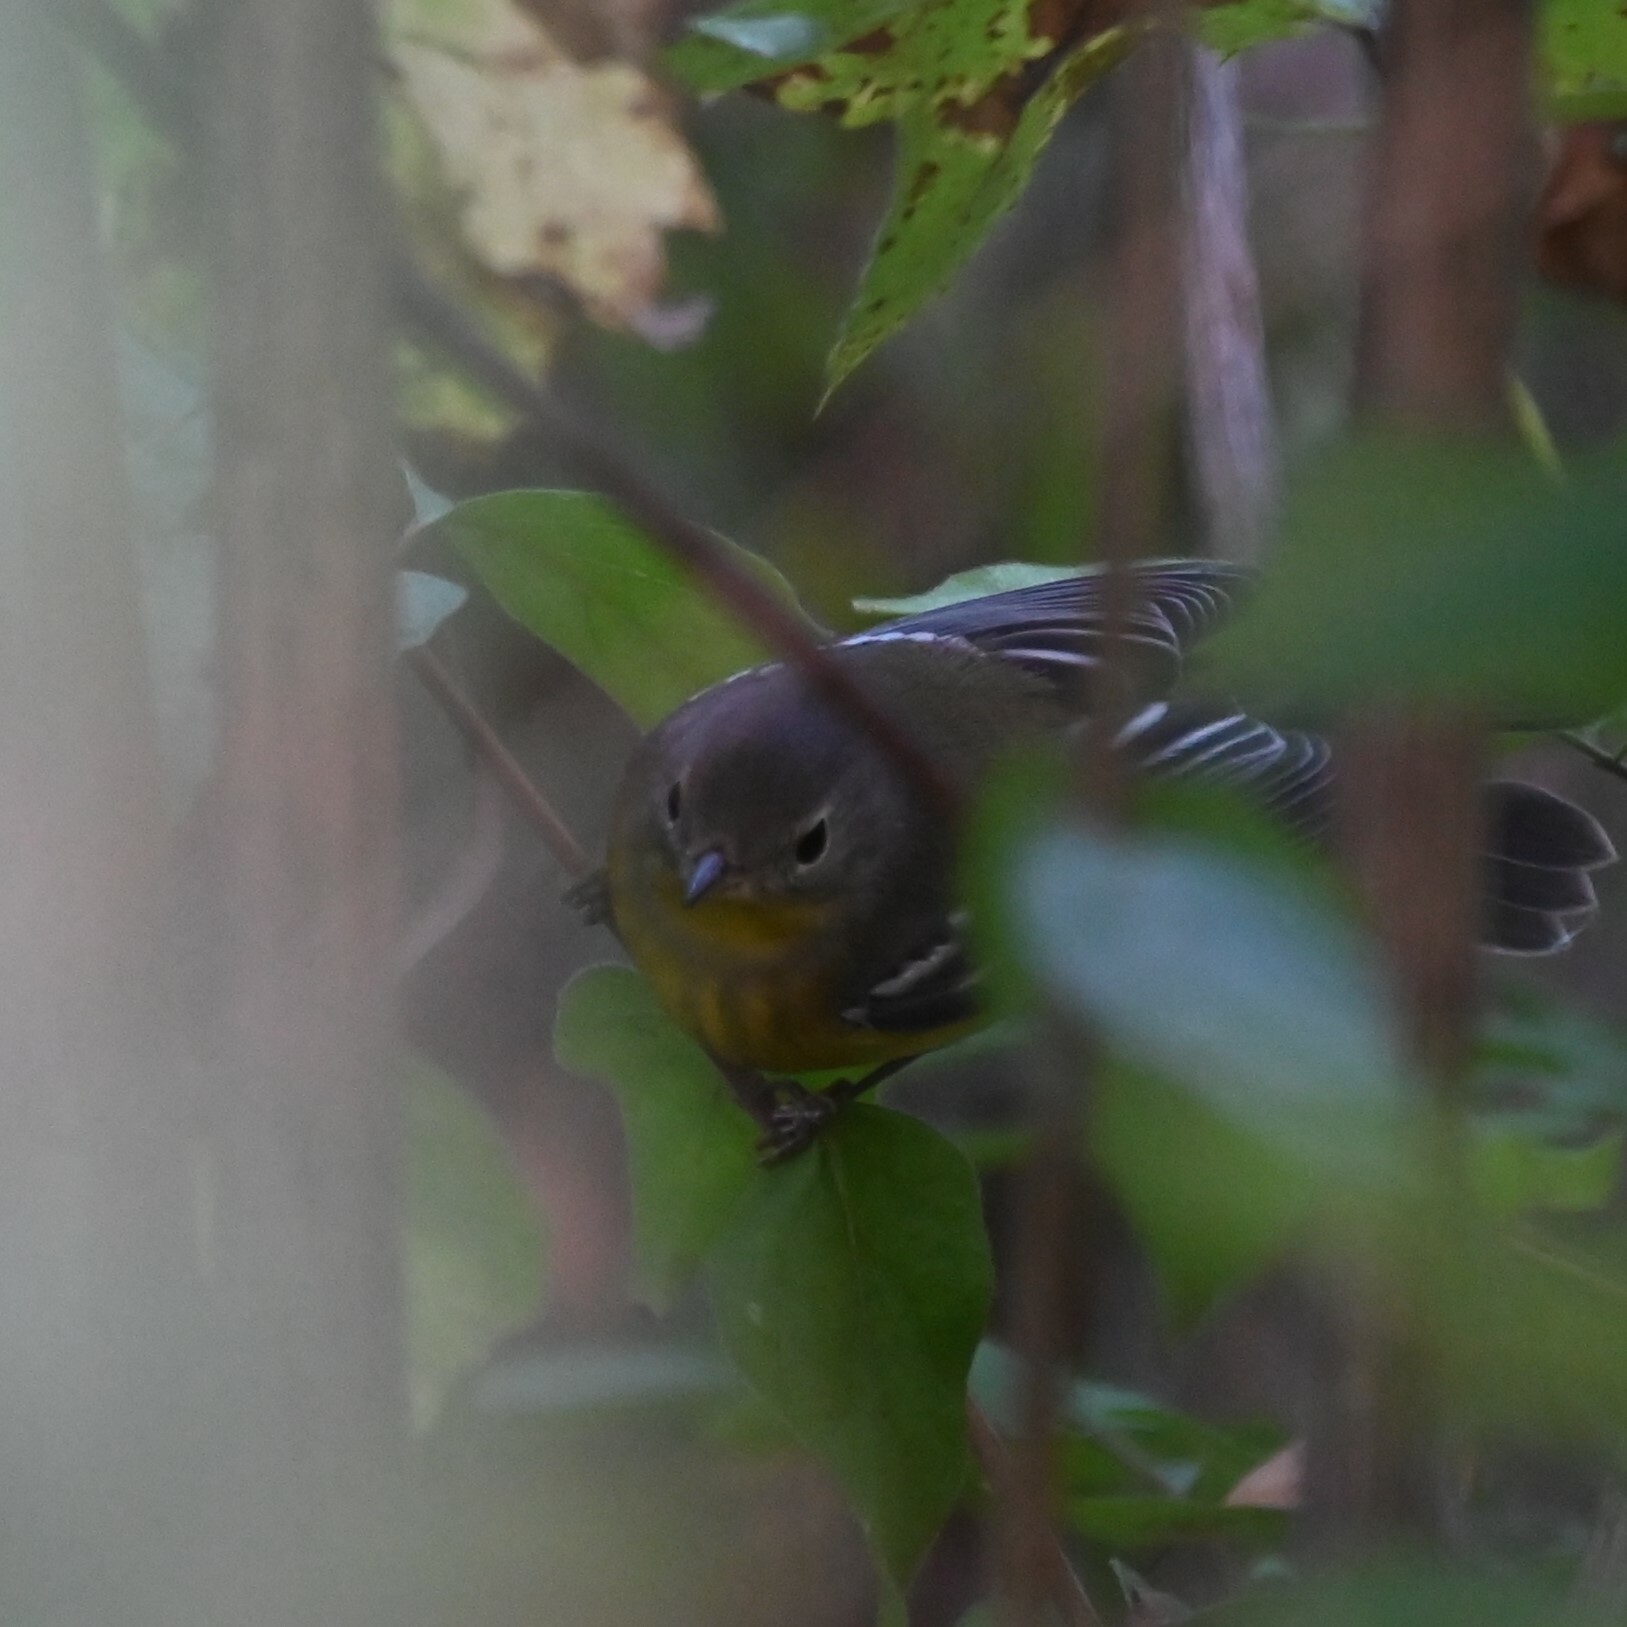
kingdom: Animalia
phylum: Chordata
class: Aves
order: Passeriformes
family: Parulidae
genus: Setophaga
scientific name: Setophaga magnolia
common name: Magnolia warbler
